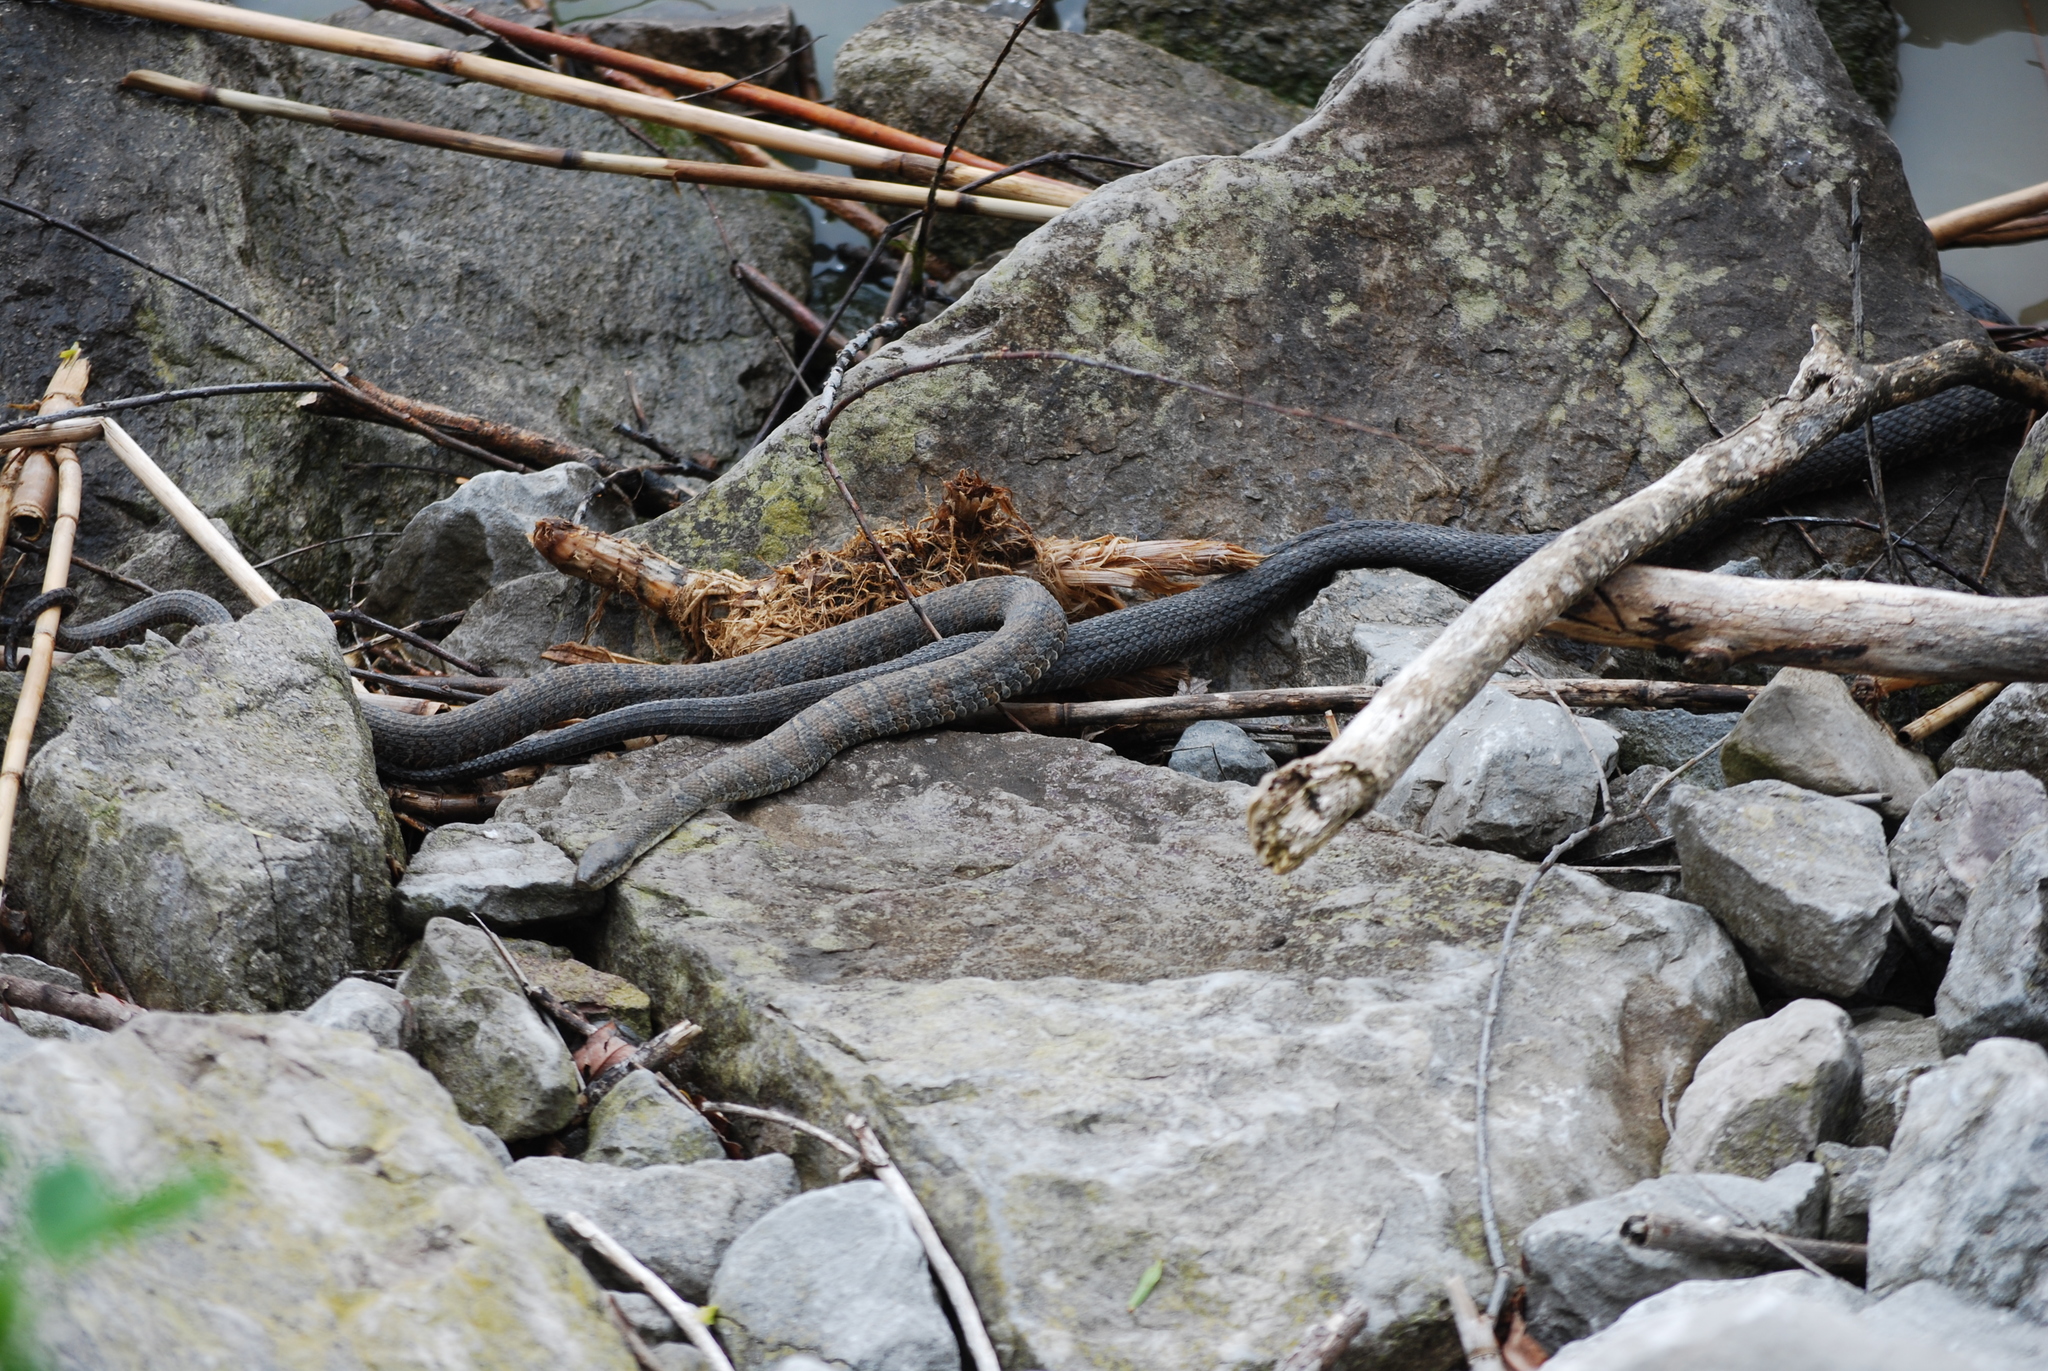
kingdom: Animalia
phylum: Chordata
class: Squamata
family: Colubridae
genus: Nerodia
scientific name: Nerodia sipedon
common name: Northern water snake
